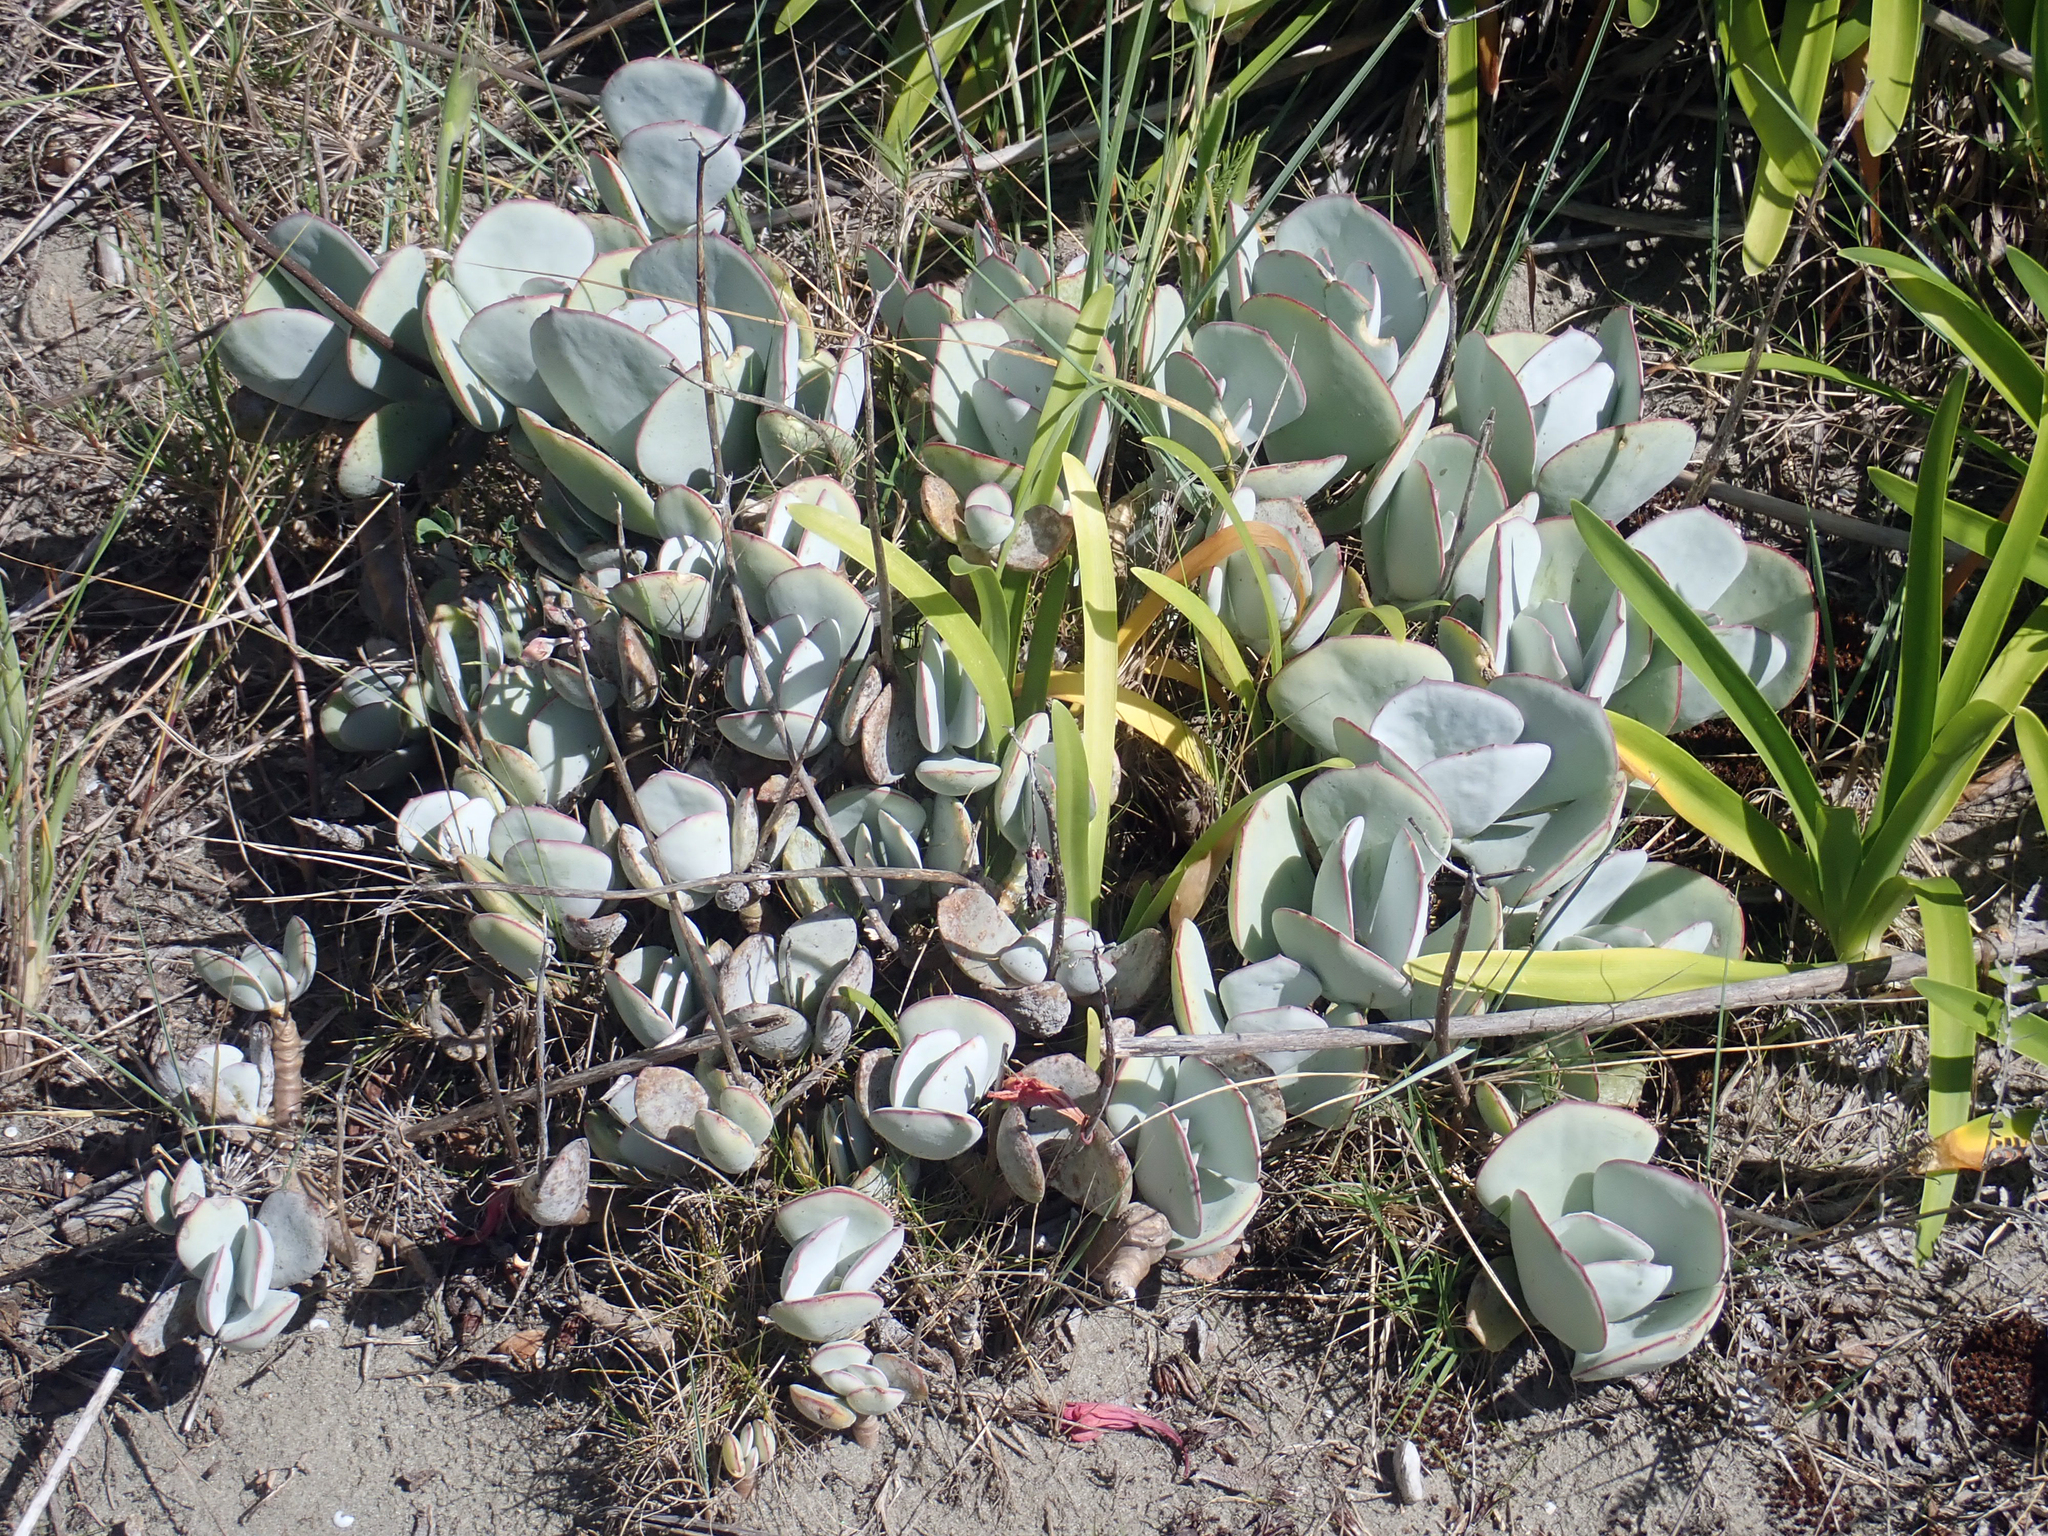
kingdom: Plantae
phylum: Tracheophyta
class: Magnoliopsida
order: Saxifragales
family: Crassulaceae
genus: Cotyledon
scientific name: Cotyledon orbiculata
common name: Pig's ear
